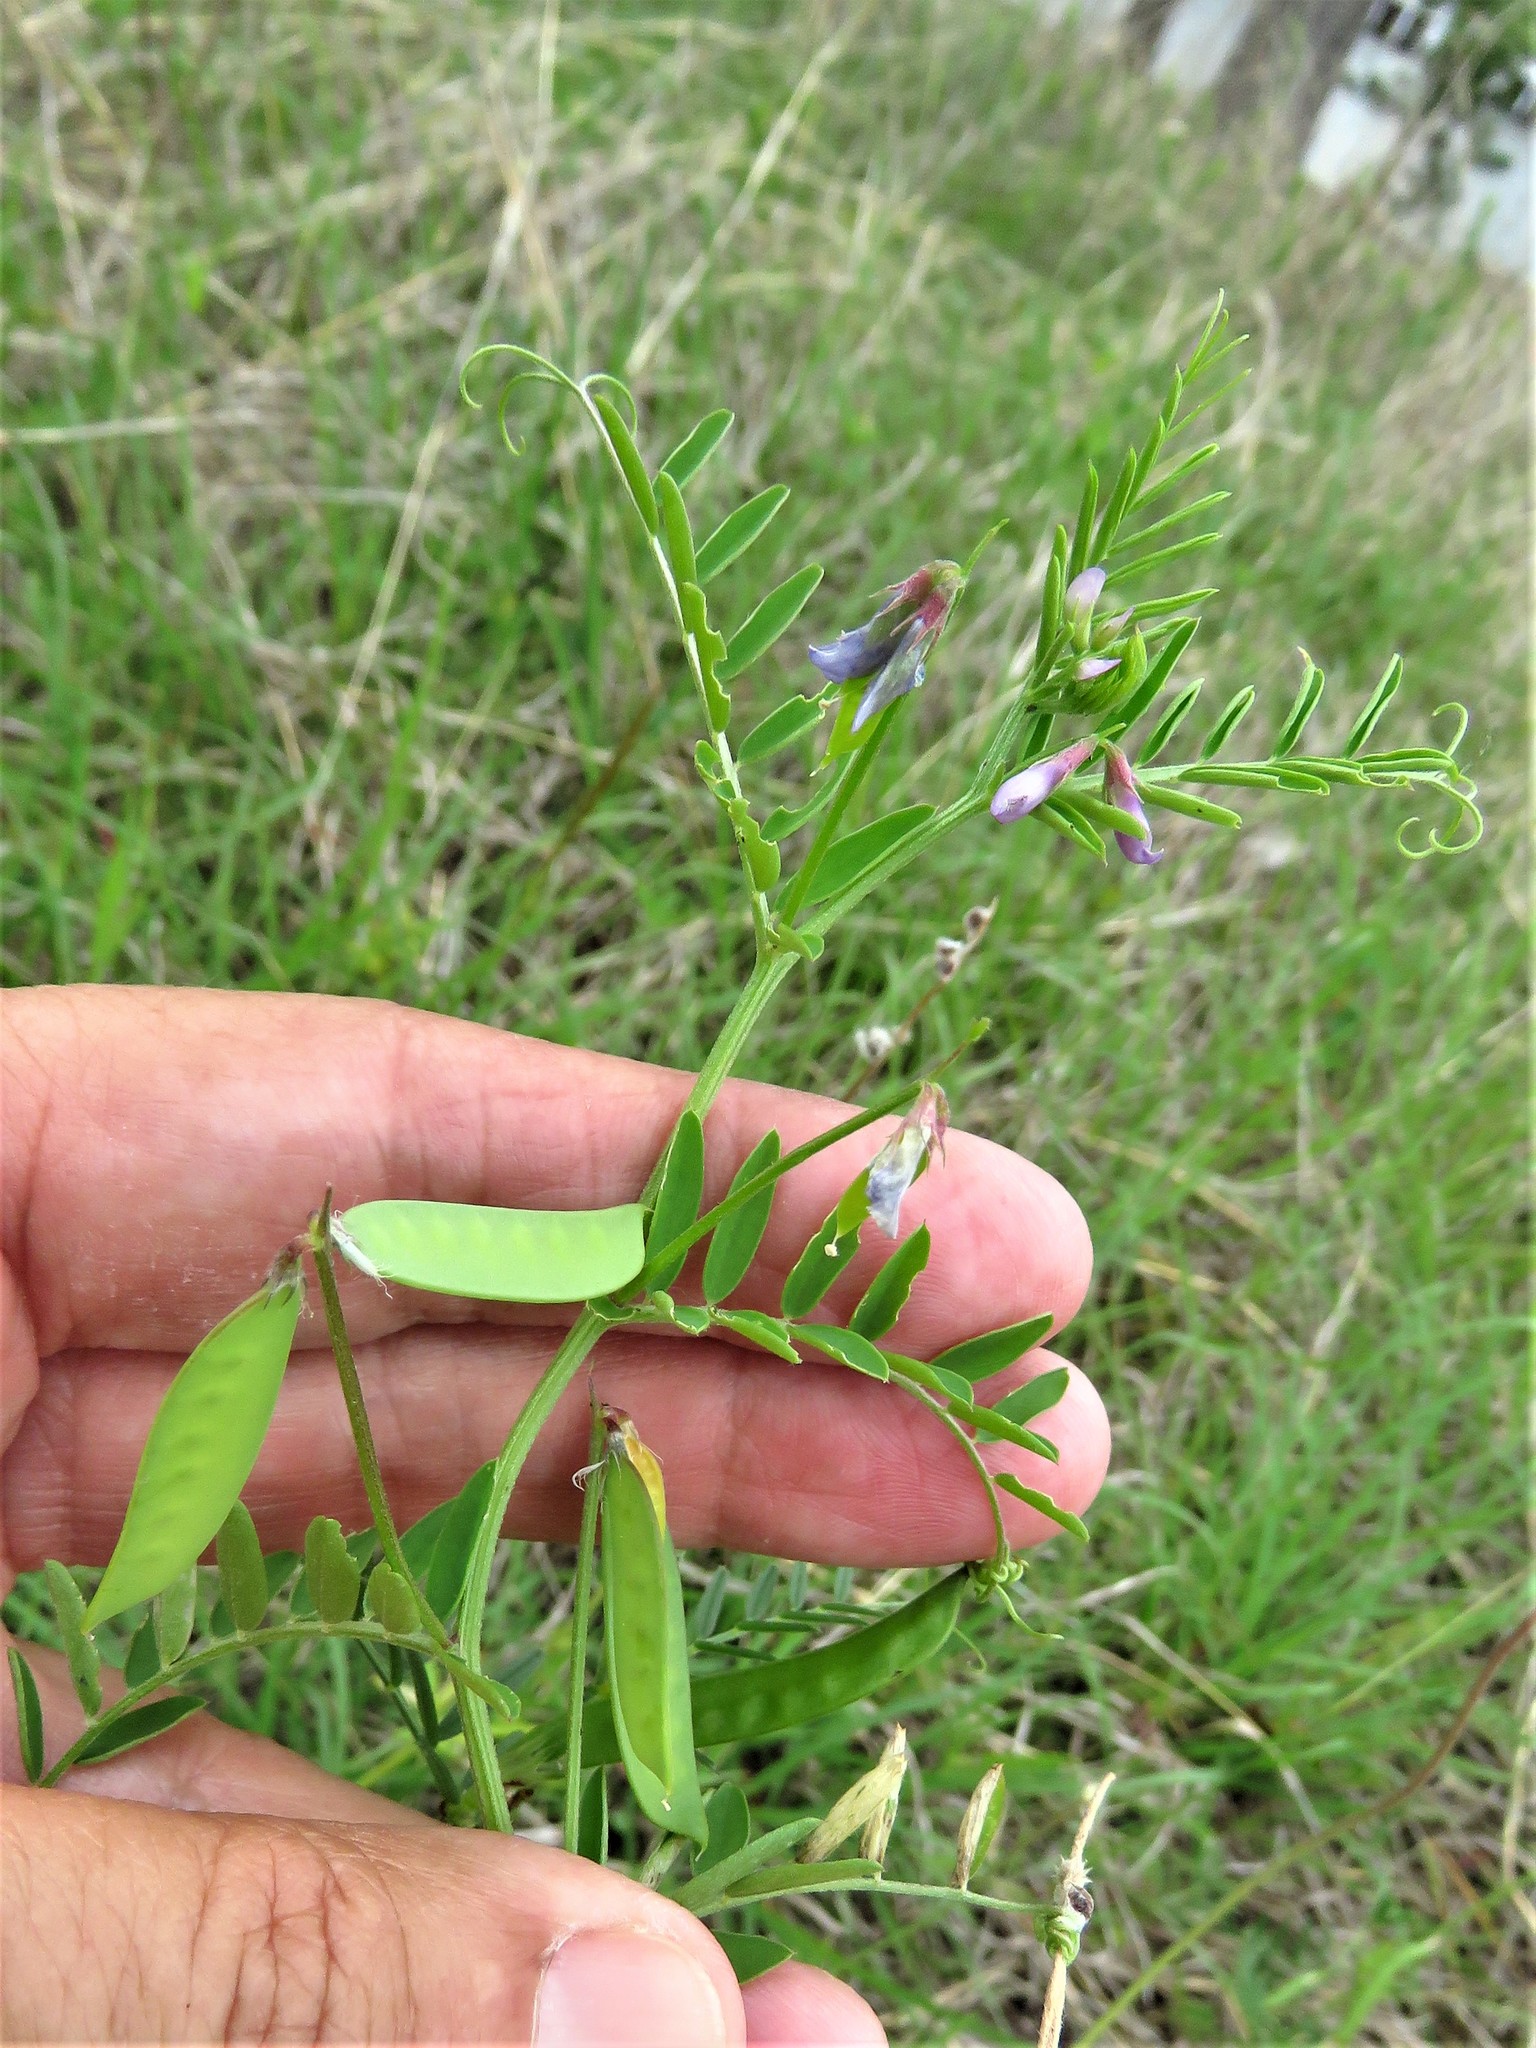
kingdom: Plantae
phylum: Tracheophyta
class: Magnoliopsida
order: Fabales
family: Fabaceae
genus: Vicia
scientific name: Vicia ludoviciana
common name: Louisiana vetch
